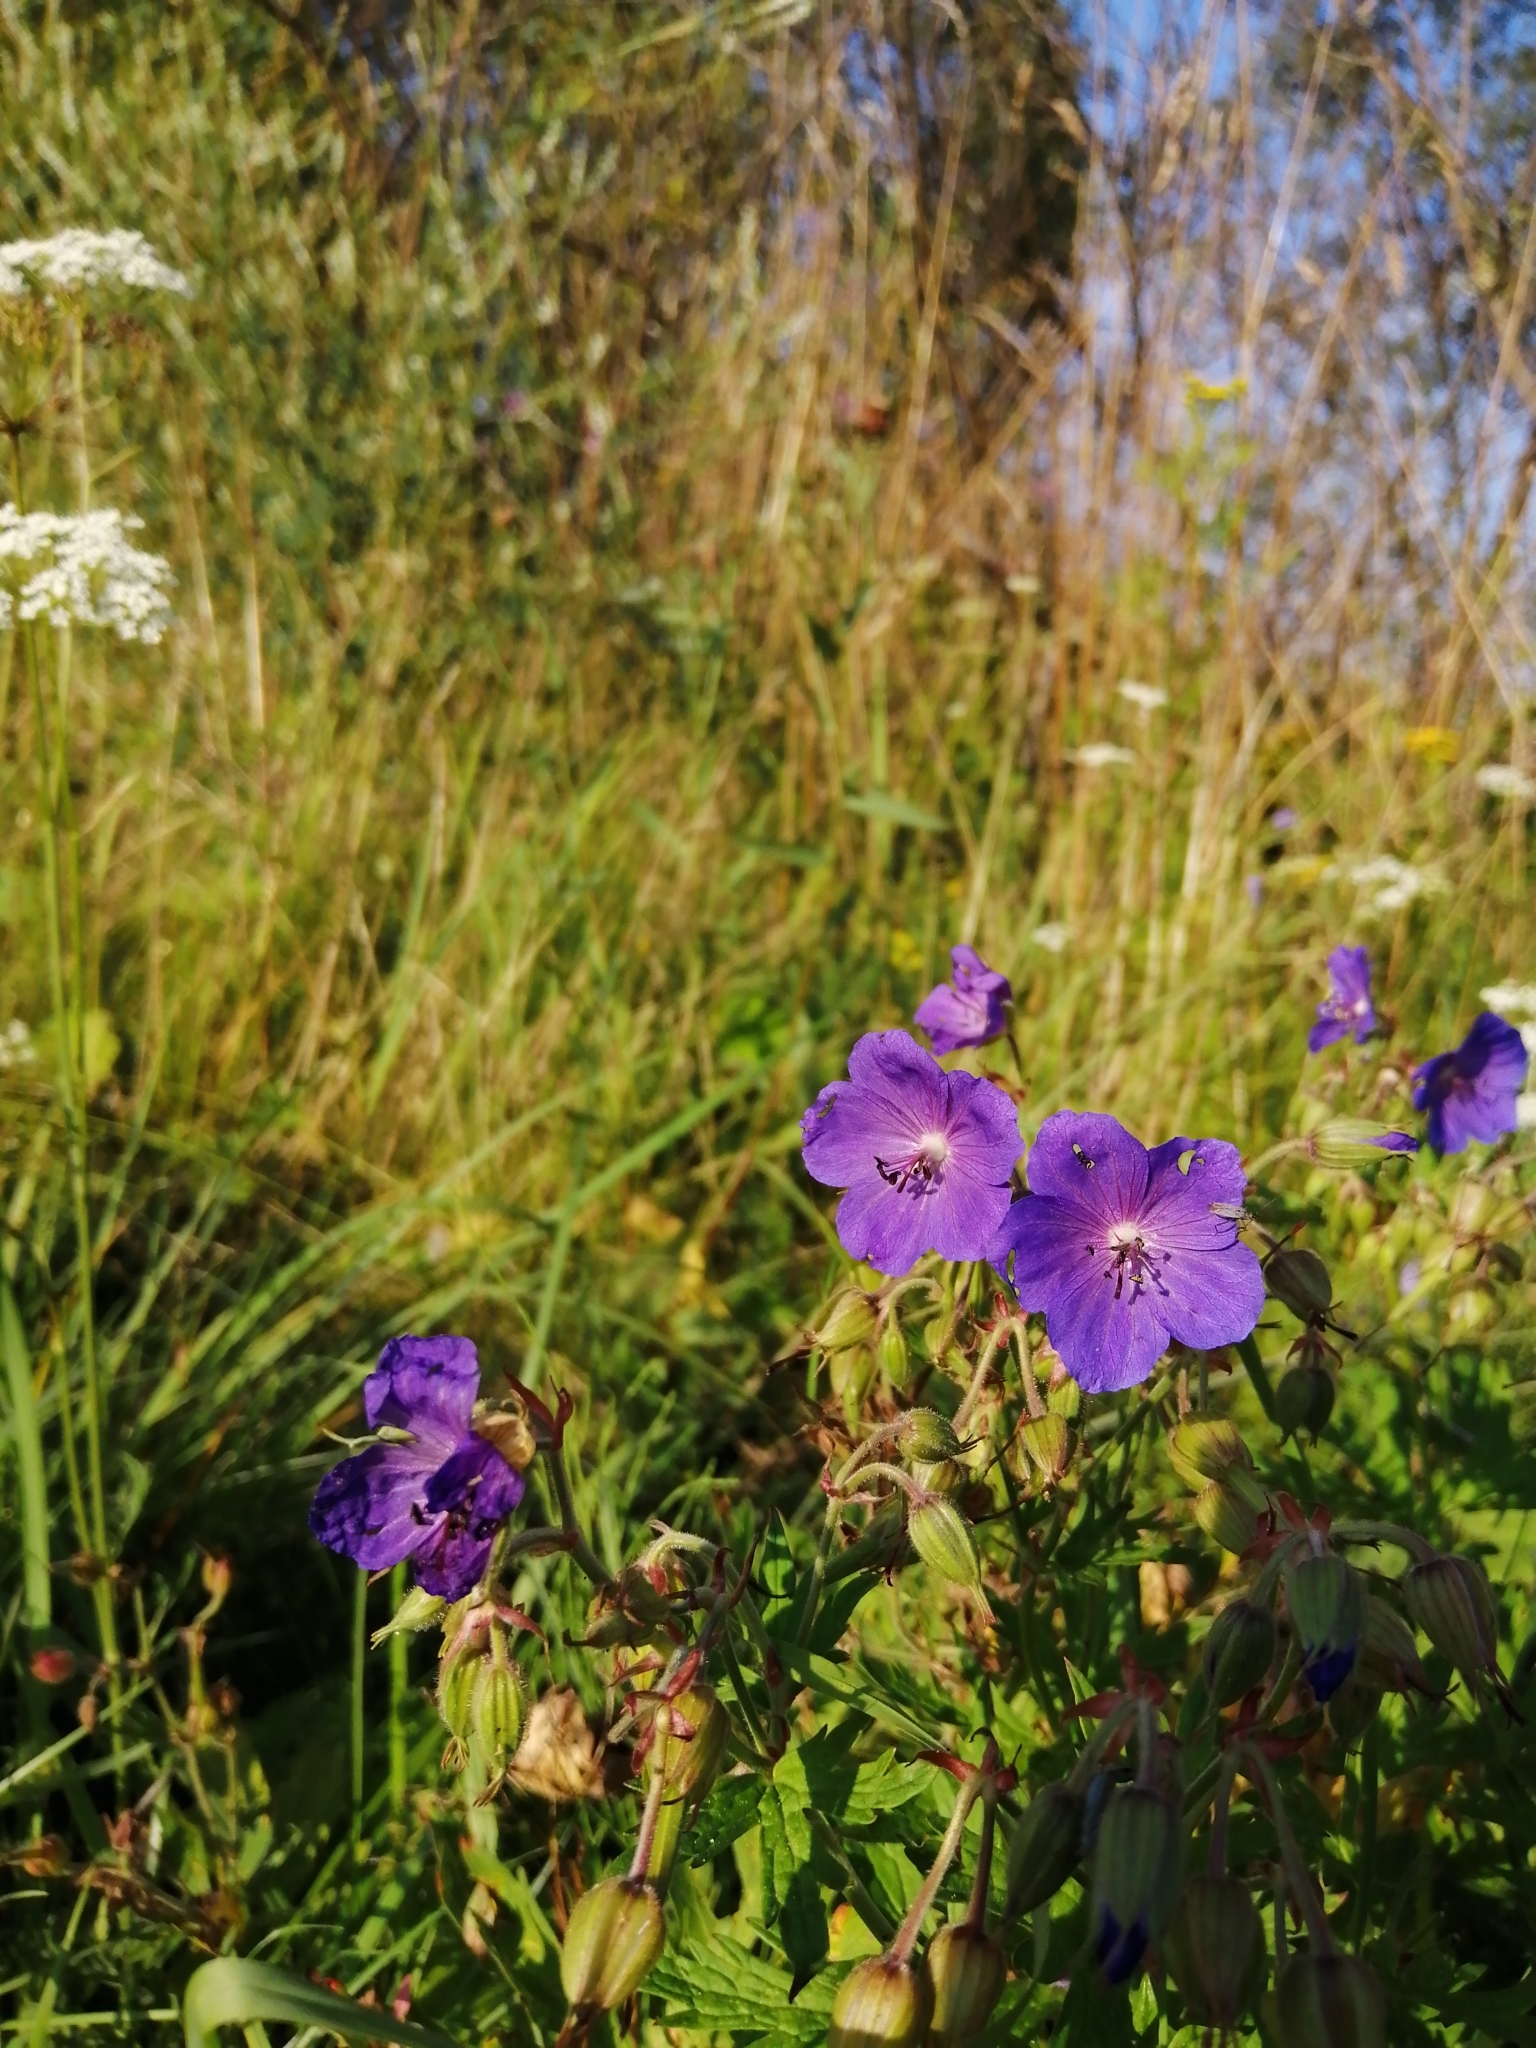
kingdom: Plantae
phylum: Tracheophyta
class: Magnoliopsida
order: Geraniales
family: Geraniaceae
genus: Geranium
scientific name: Geranium pratense
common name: Meadow crane's-bill
